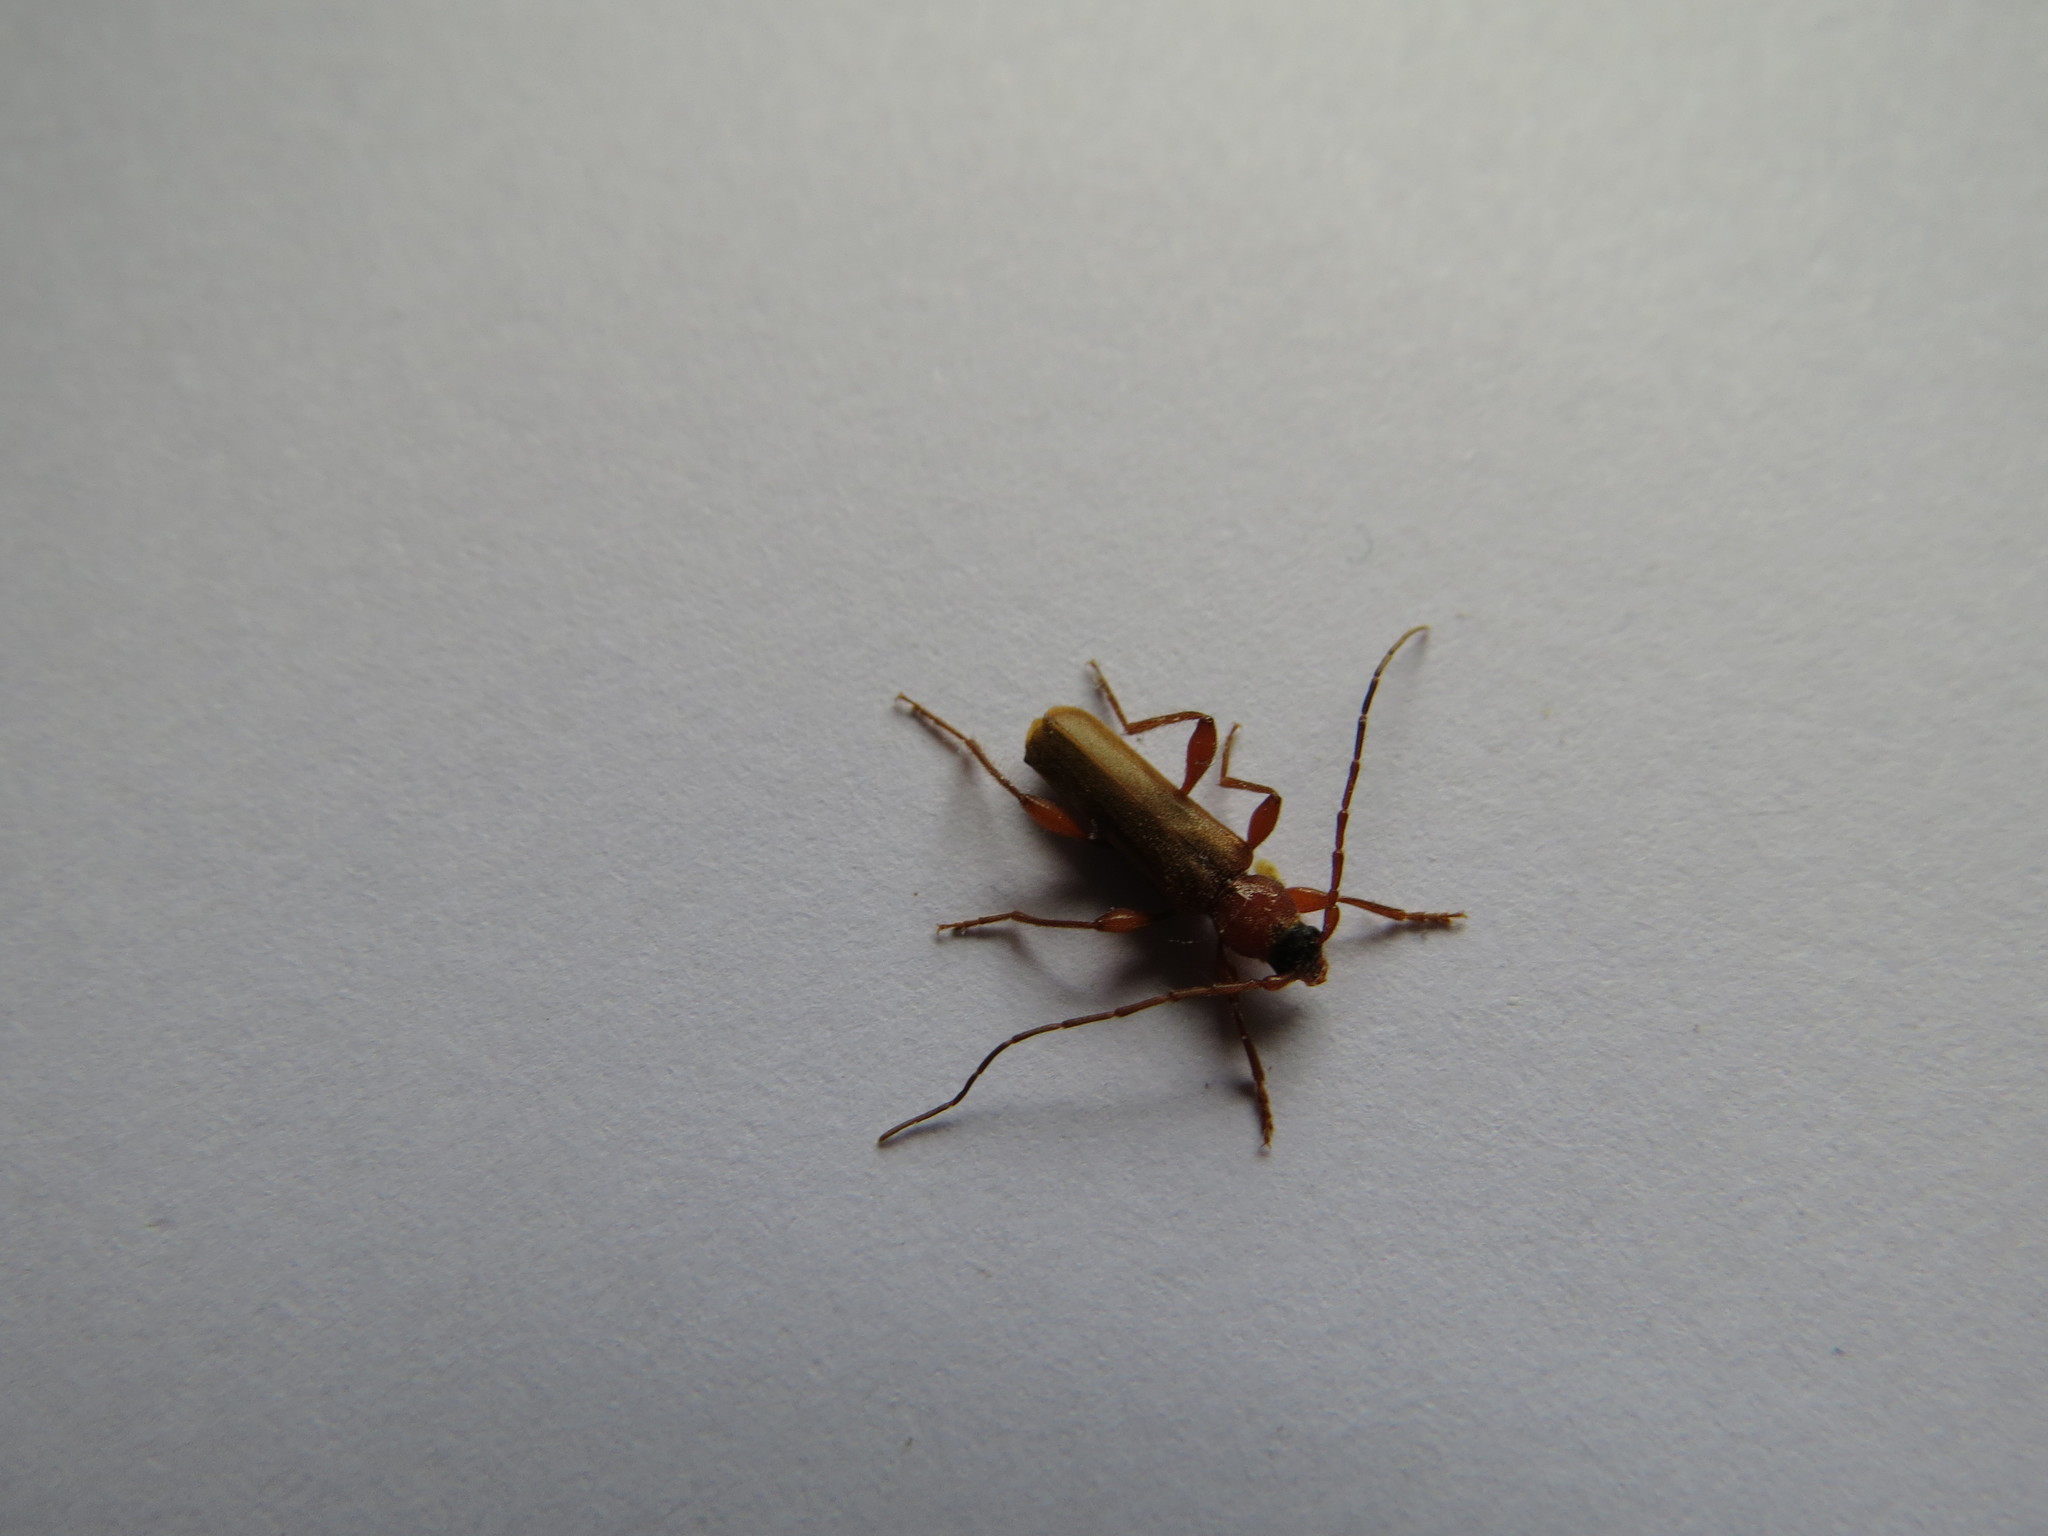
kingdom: Animalia
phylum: Arthropoda
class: Insecta
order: Coleoptera
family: Cerambycidae
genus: Phymatodes
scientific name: Phymatodes testaceus
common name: Long-horned beetle
